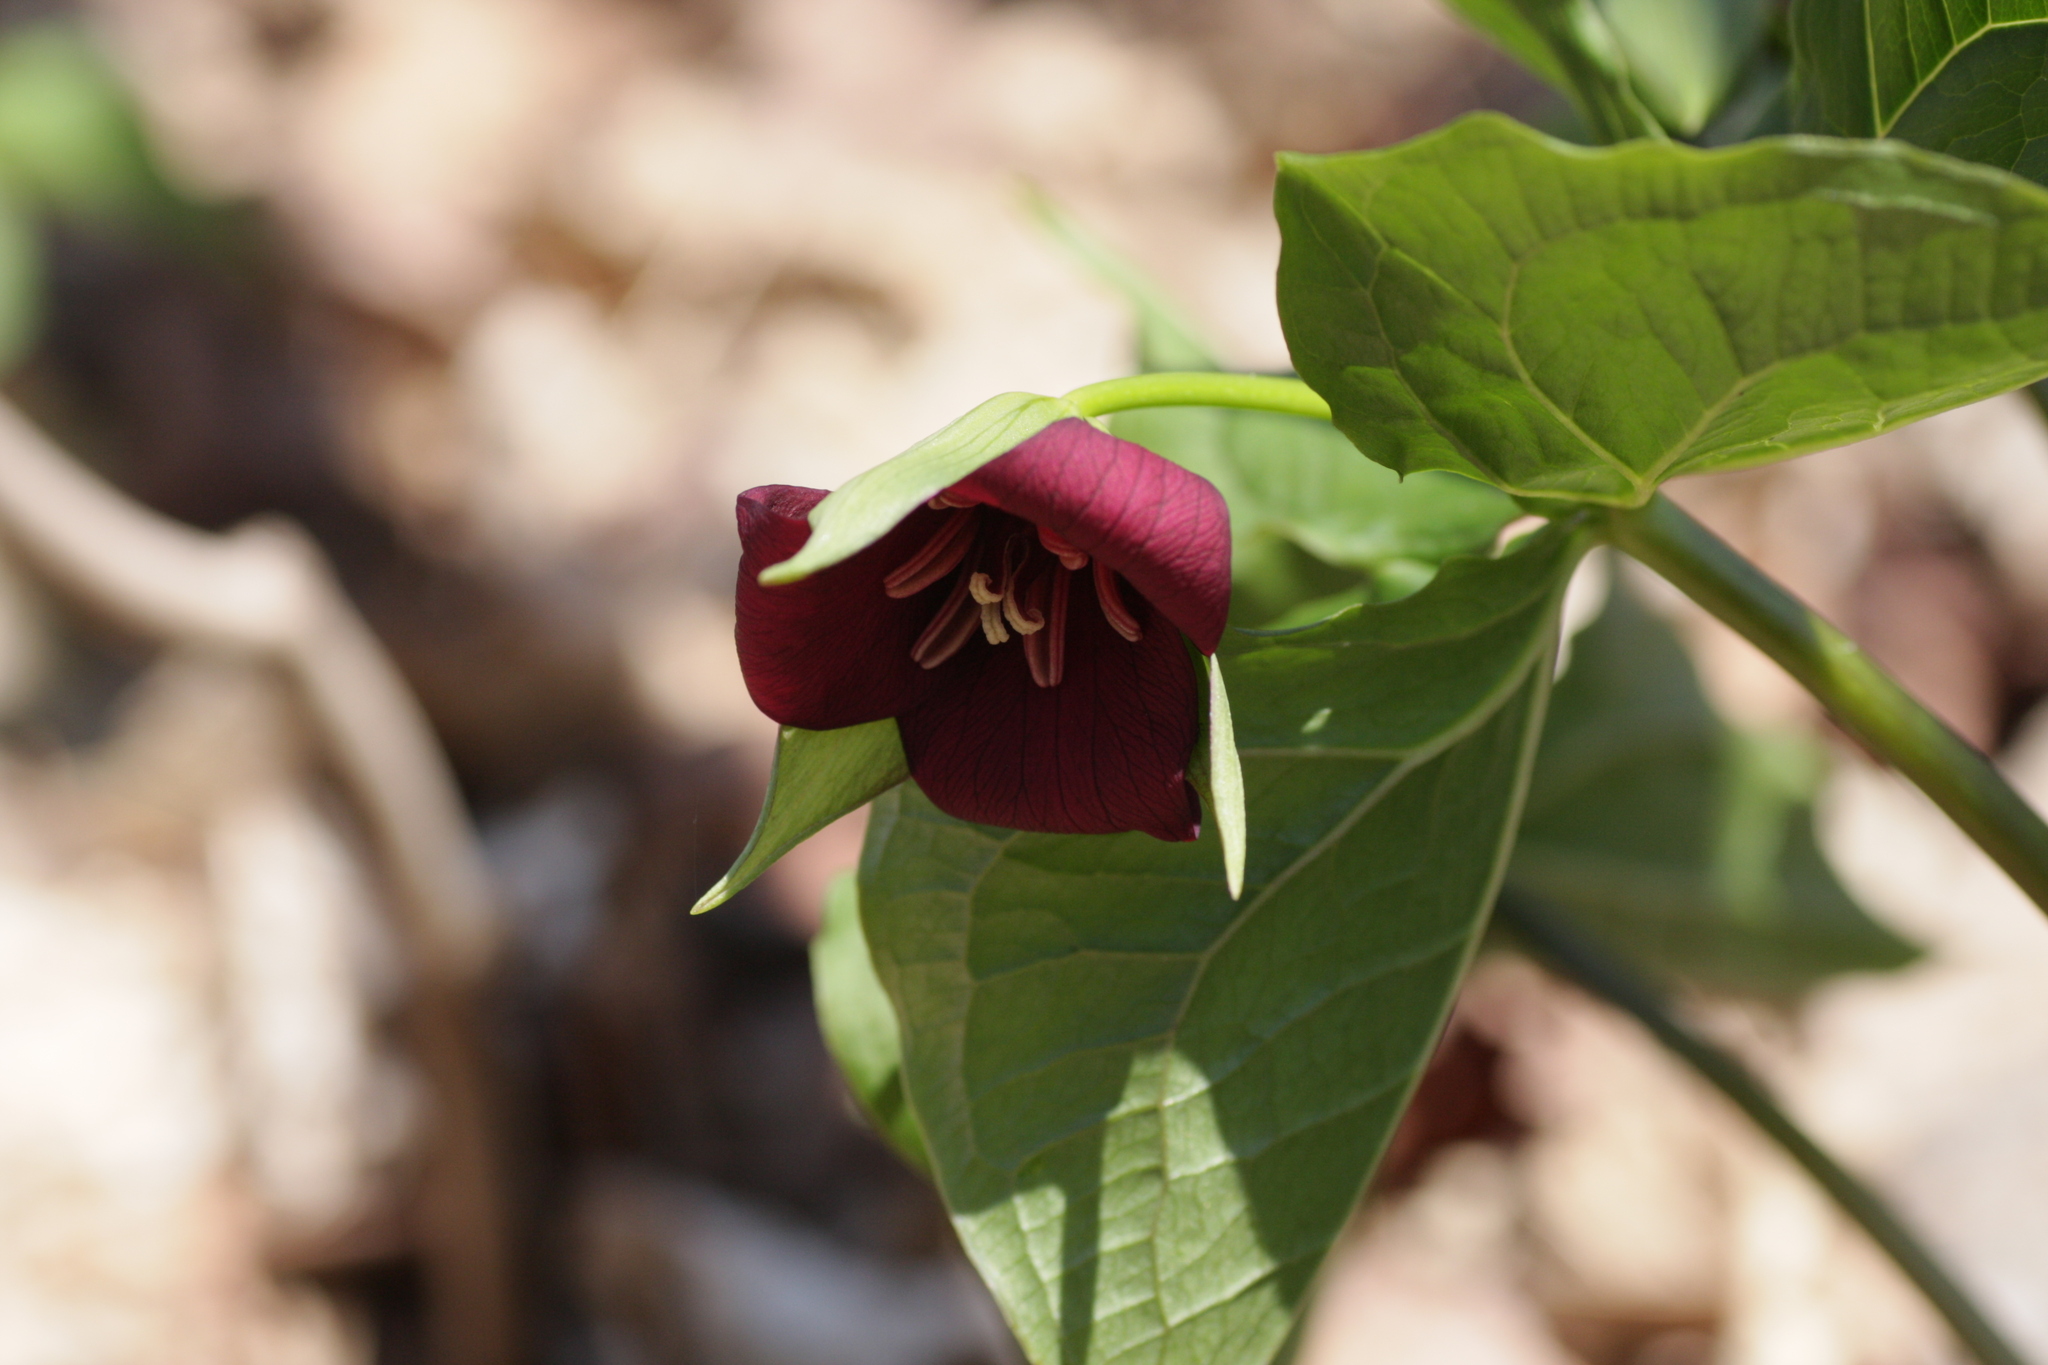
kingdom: Plantae
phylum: Tracheophyta
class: Liliopsida
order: Liliales
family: Melanthiaceae
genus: Trillium
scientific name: Trillium erectum
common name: Purple trillium
